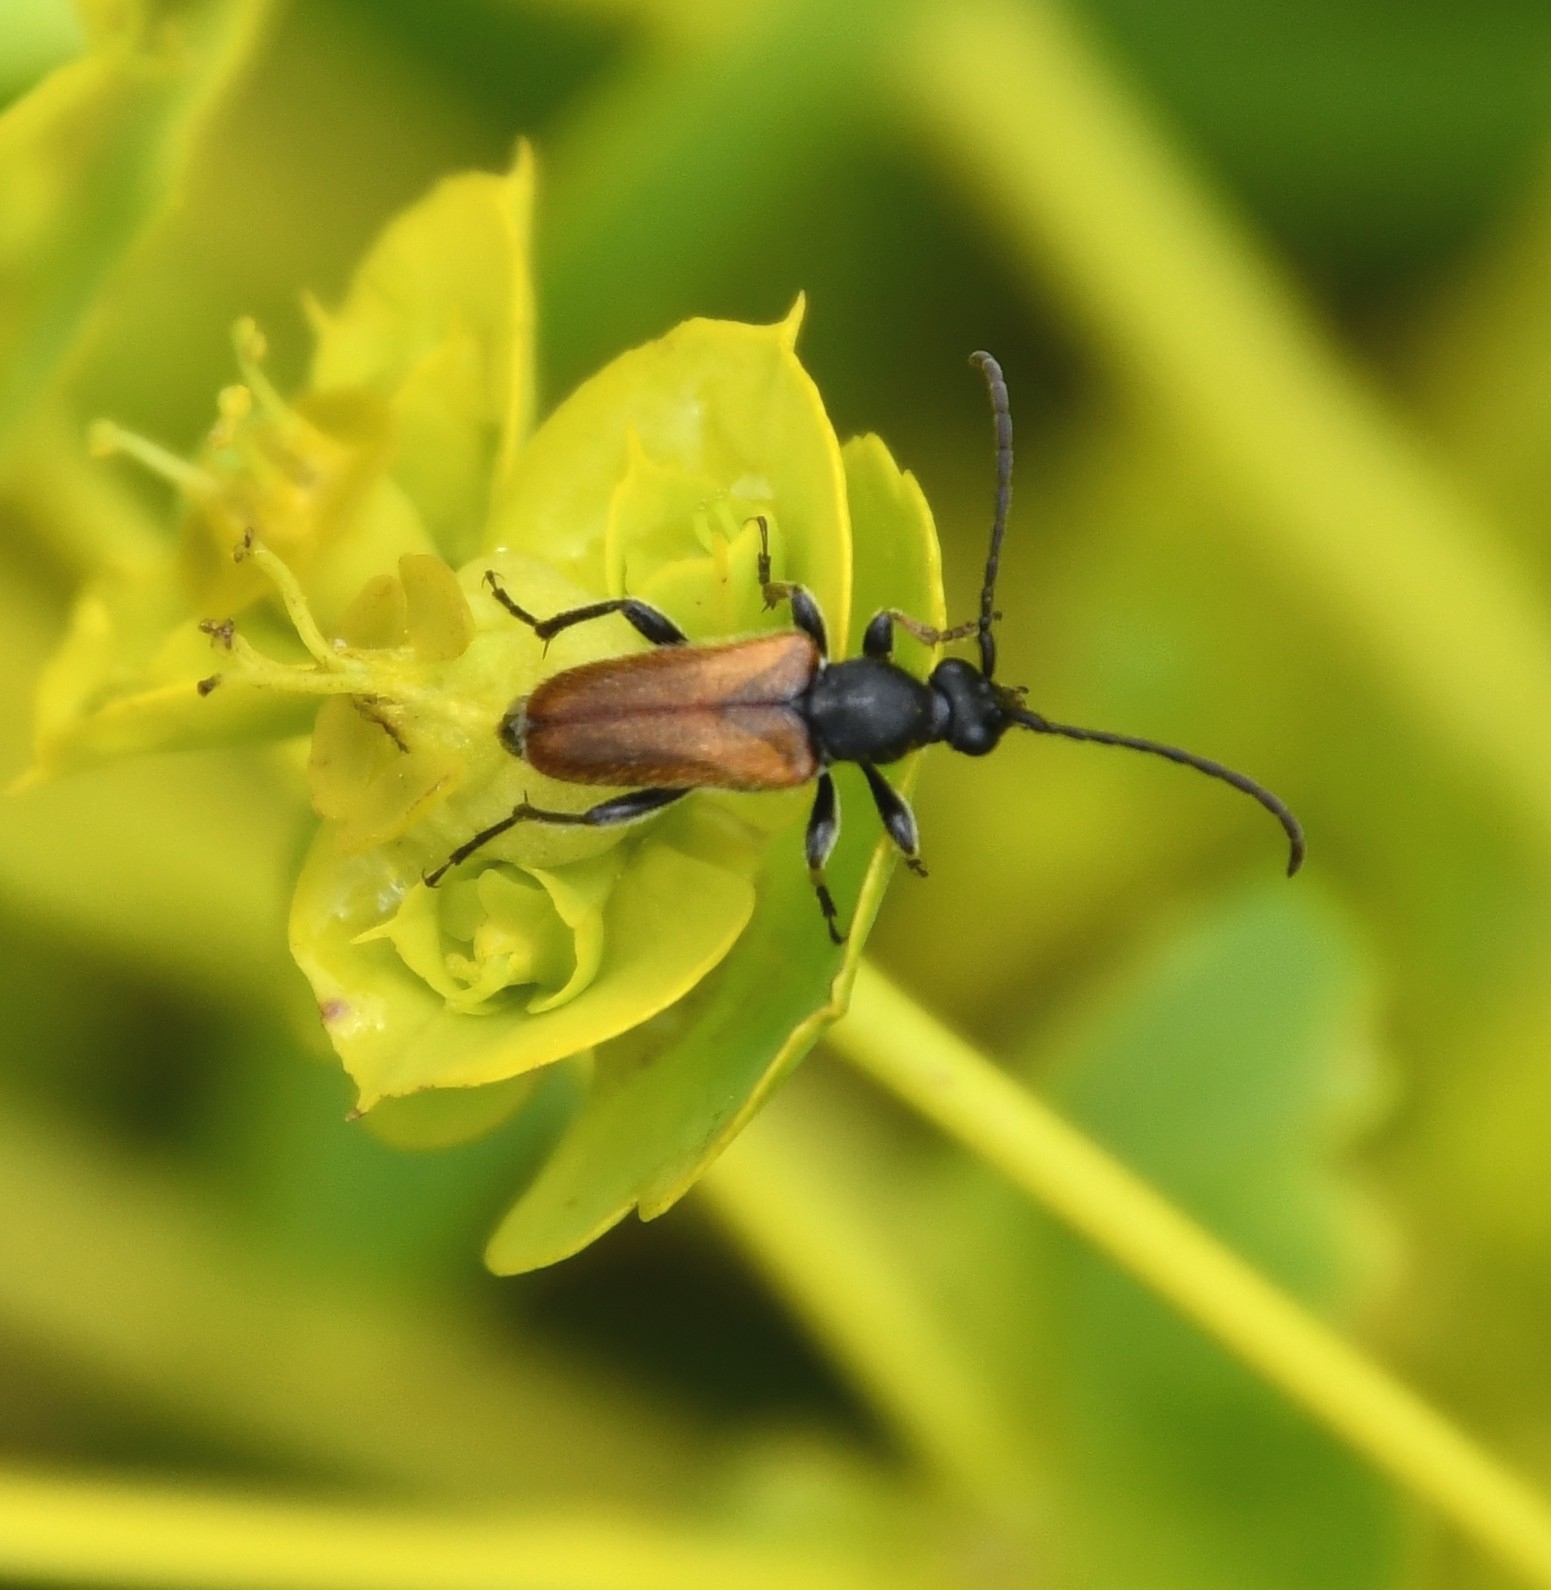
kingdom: Animalia
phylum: Arthropoda
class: Insecta
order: Coleoptera
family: Cerambycidae
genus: Pseudovadonia
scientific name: Pseudovadonia livida
